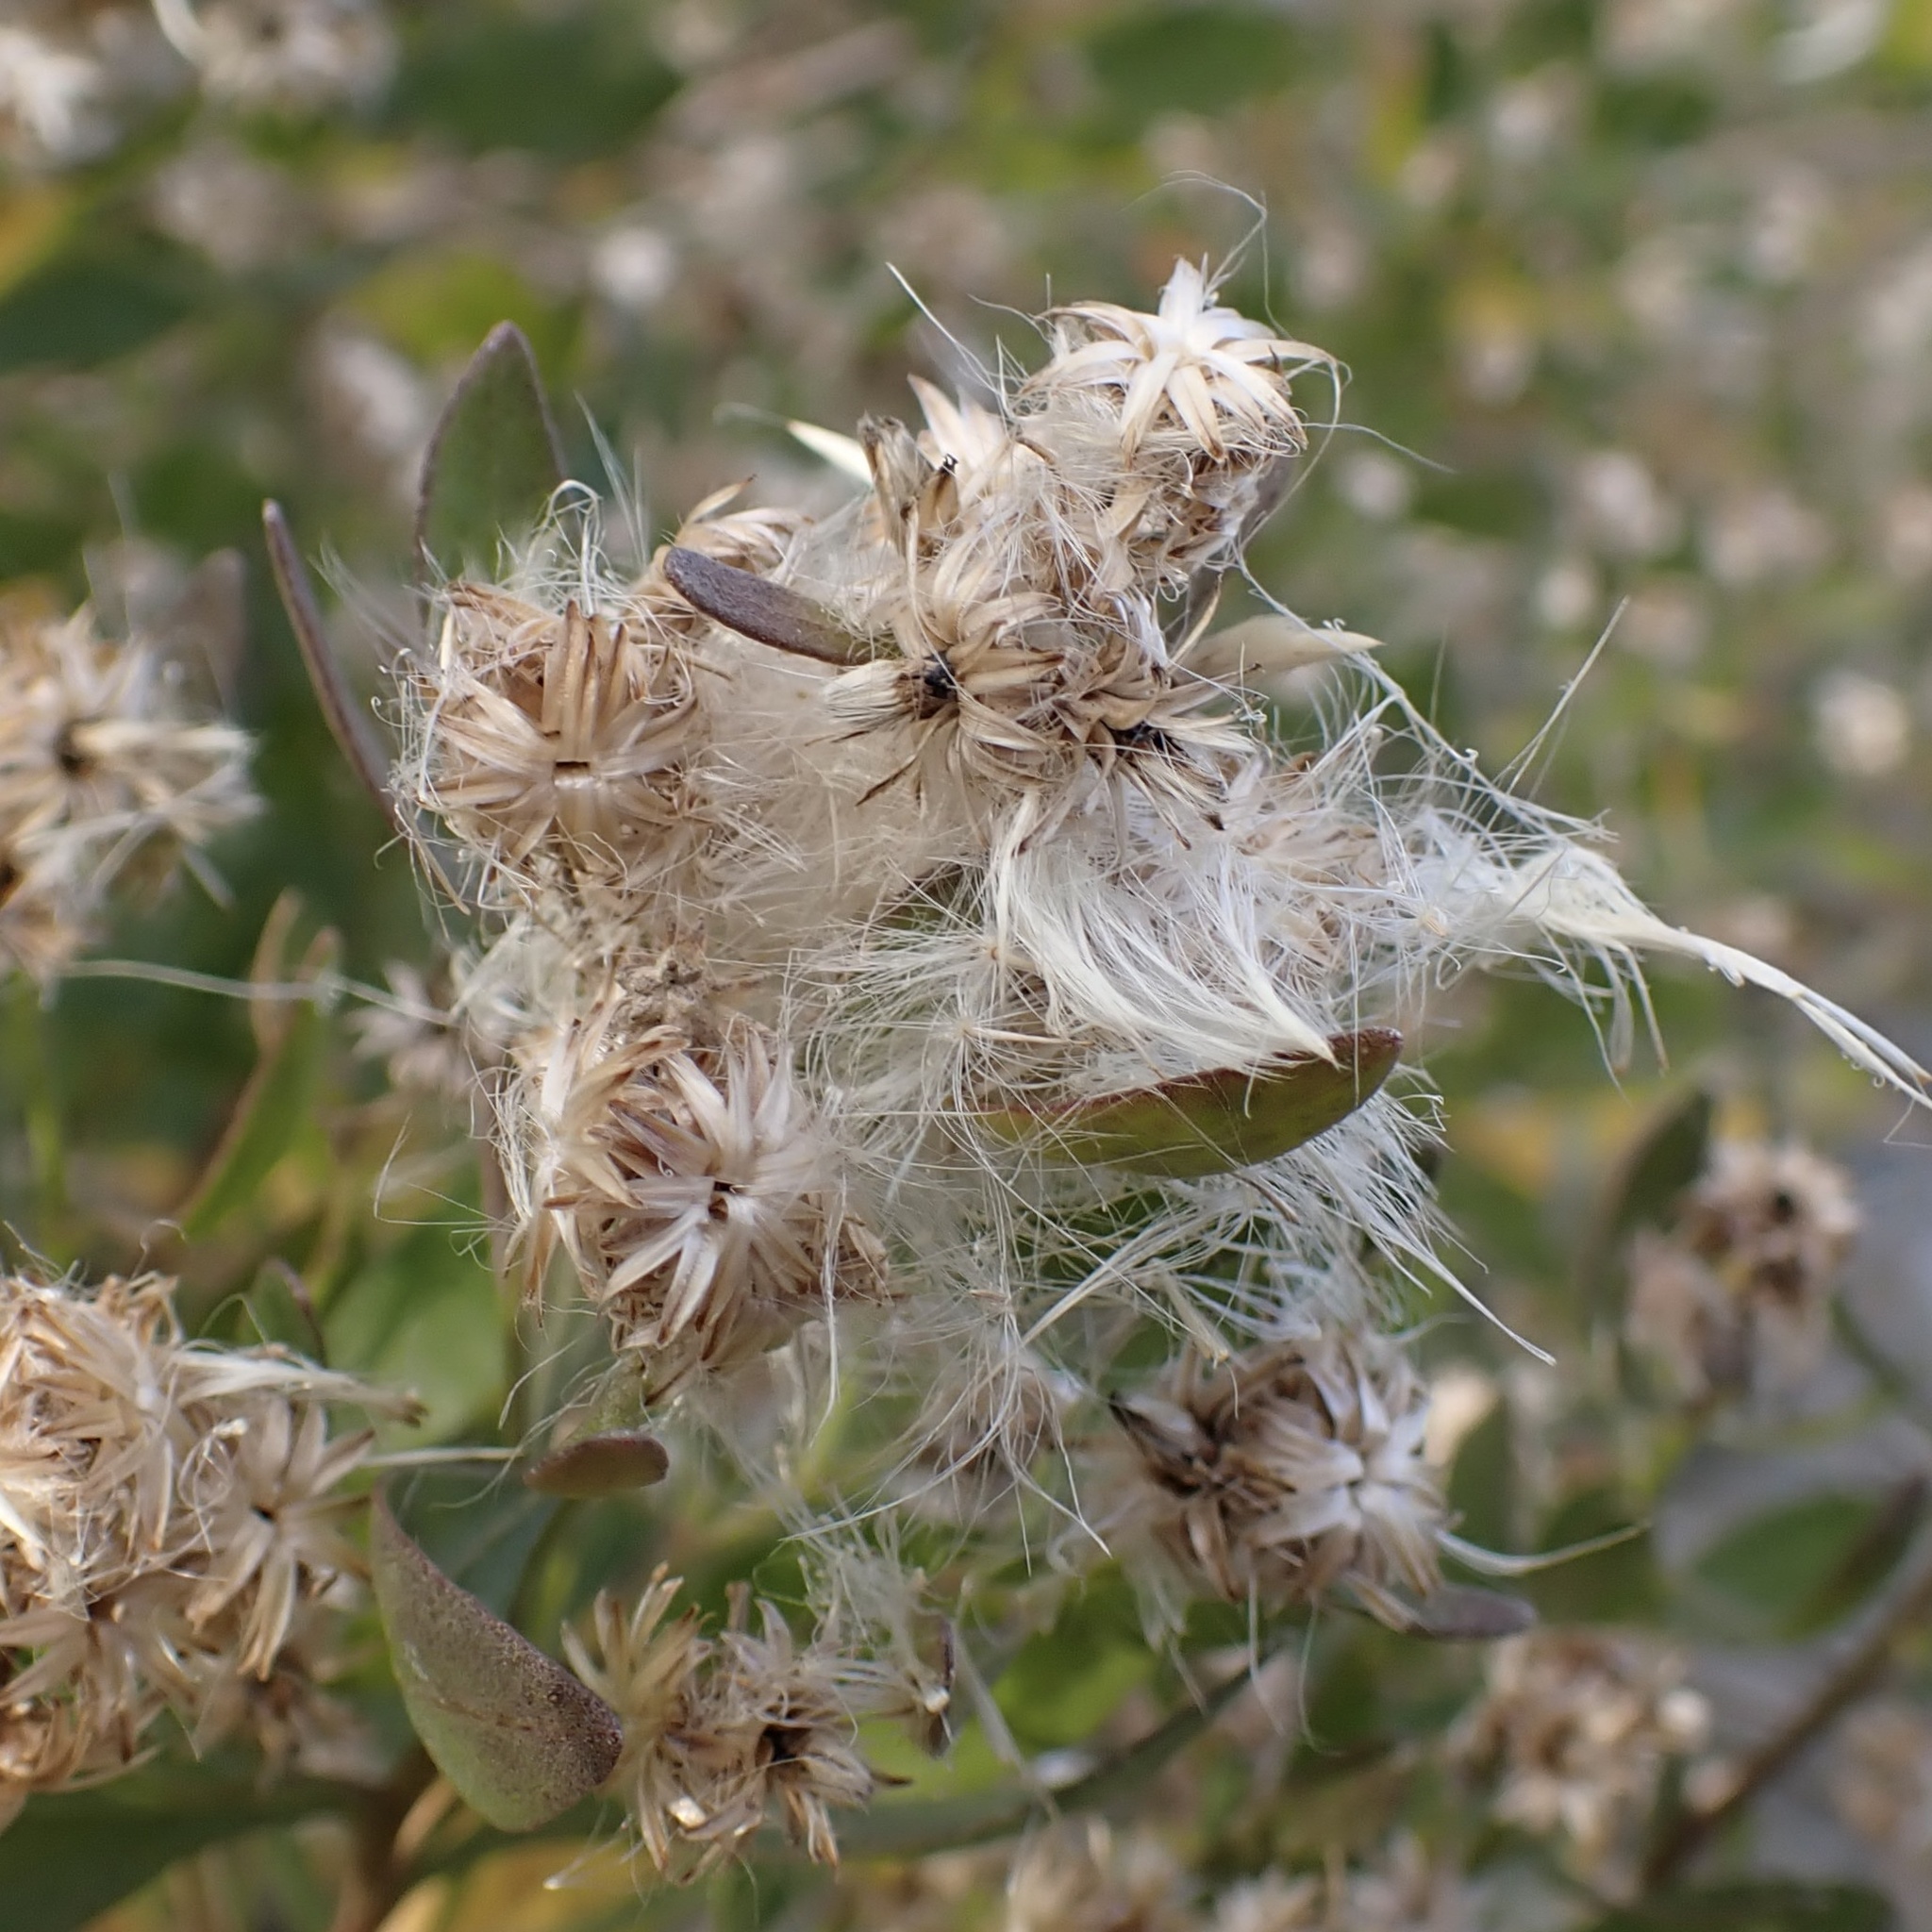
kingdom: Plantae
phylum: Tracheophyta
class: Magnoliopsida
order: Asterales
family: Asteraceae
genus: Baccharis
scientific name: Baccharis halimifolia
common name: Eastern baccharis
